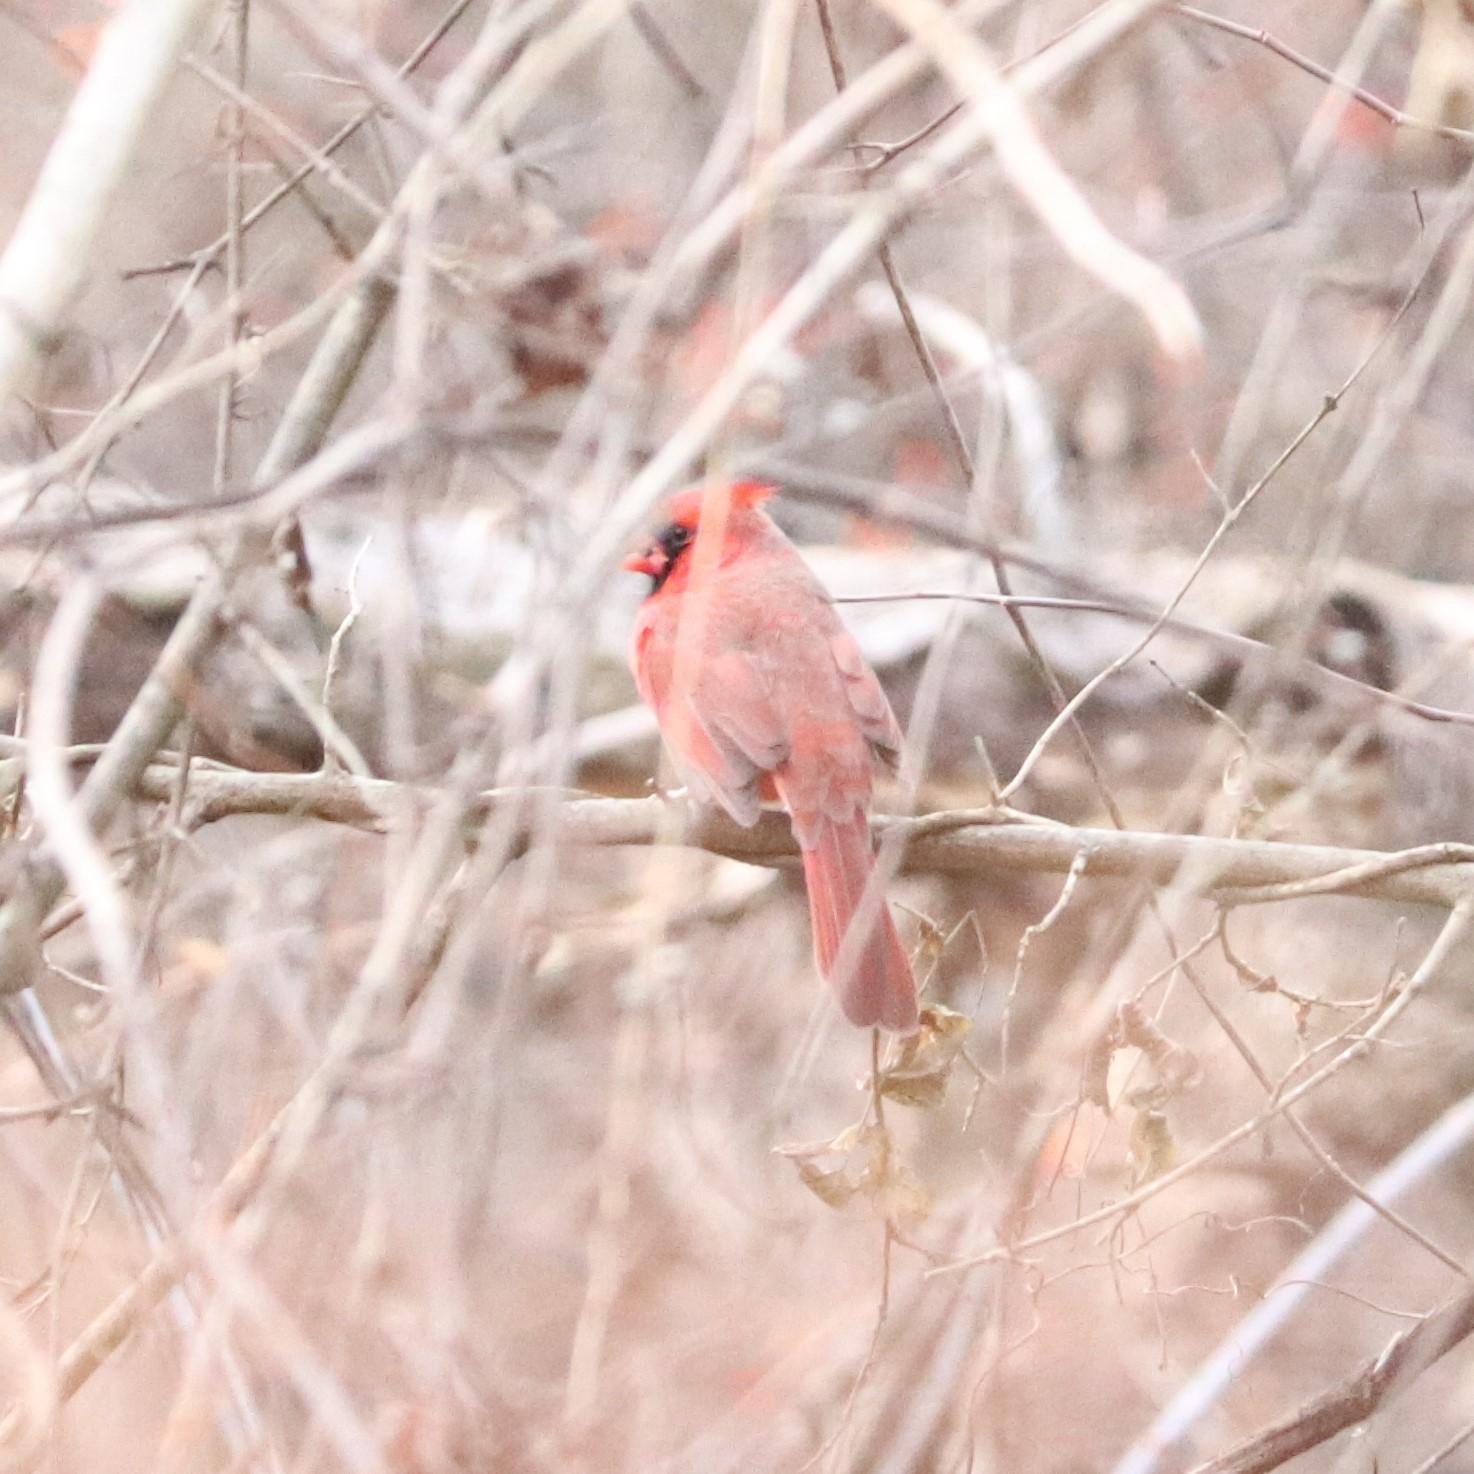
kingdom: Animalia
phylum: Chordata
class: Aves
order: Passeriformes
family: Cardinalidae
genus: Cardinalis
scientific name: Cardinalis cardinalis
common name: Northern cardinal
